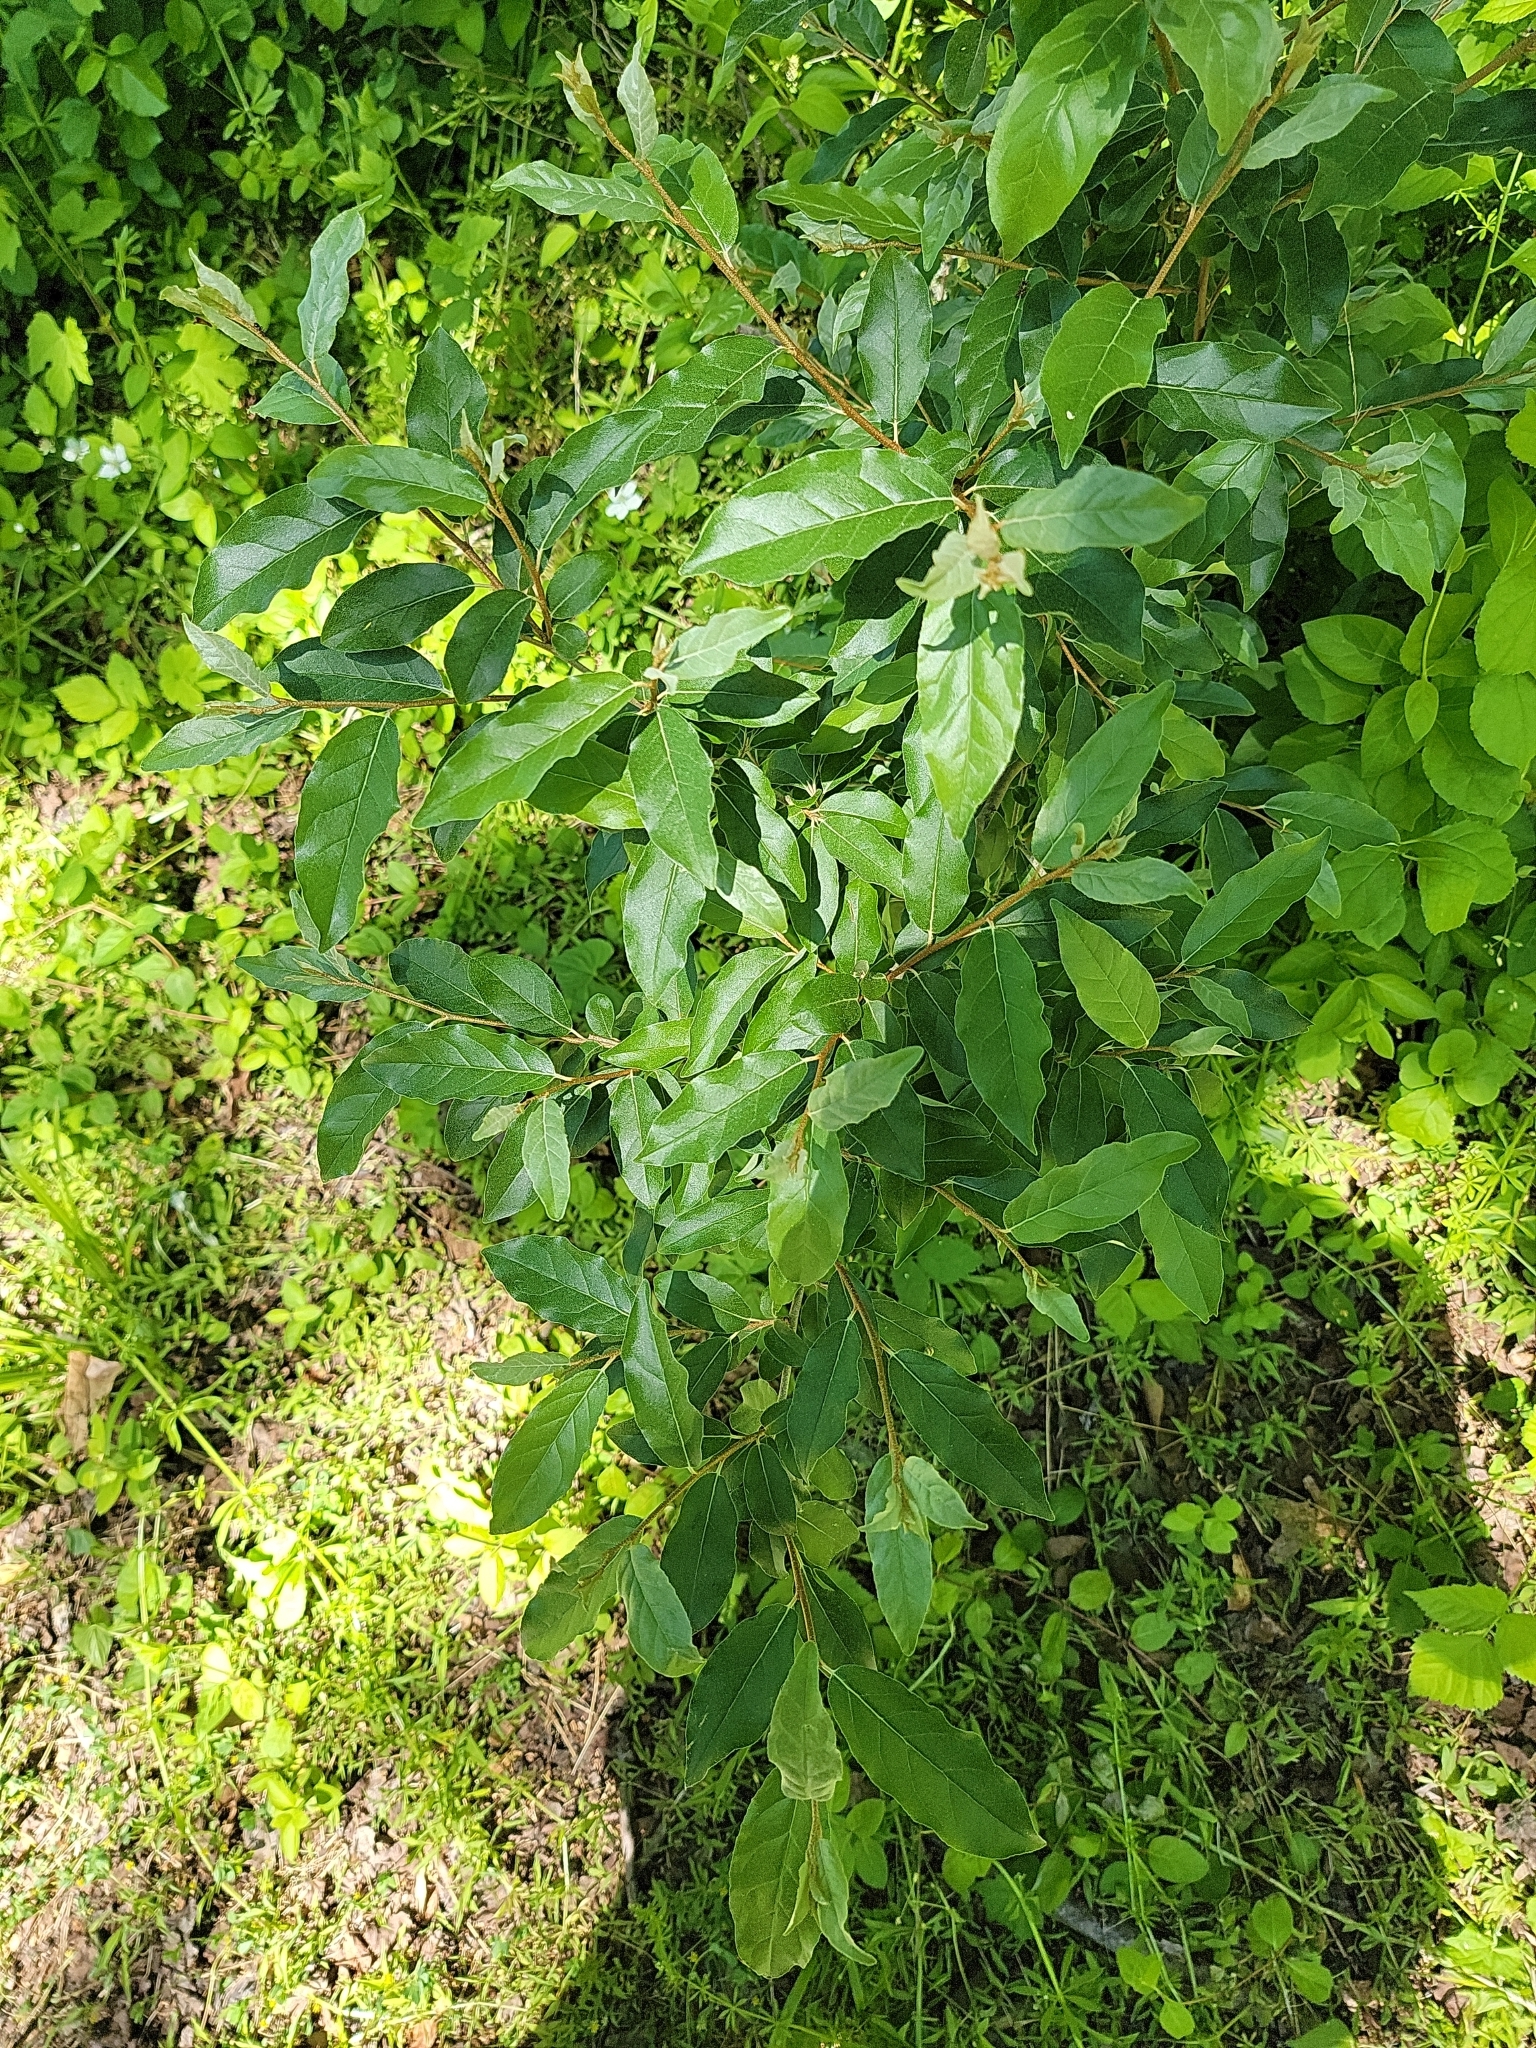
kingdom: Plantae
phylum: Tracheophyta
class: Magnoliopsida
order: Rosales
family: Elaeagnaceae
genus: Elaeagnus
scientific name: Elaeagnus umbellata
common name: Autumn olive
